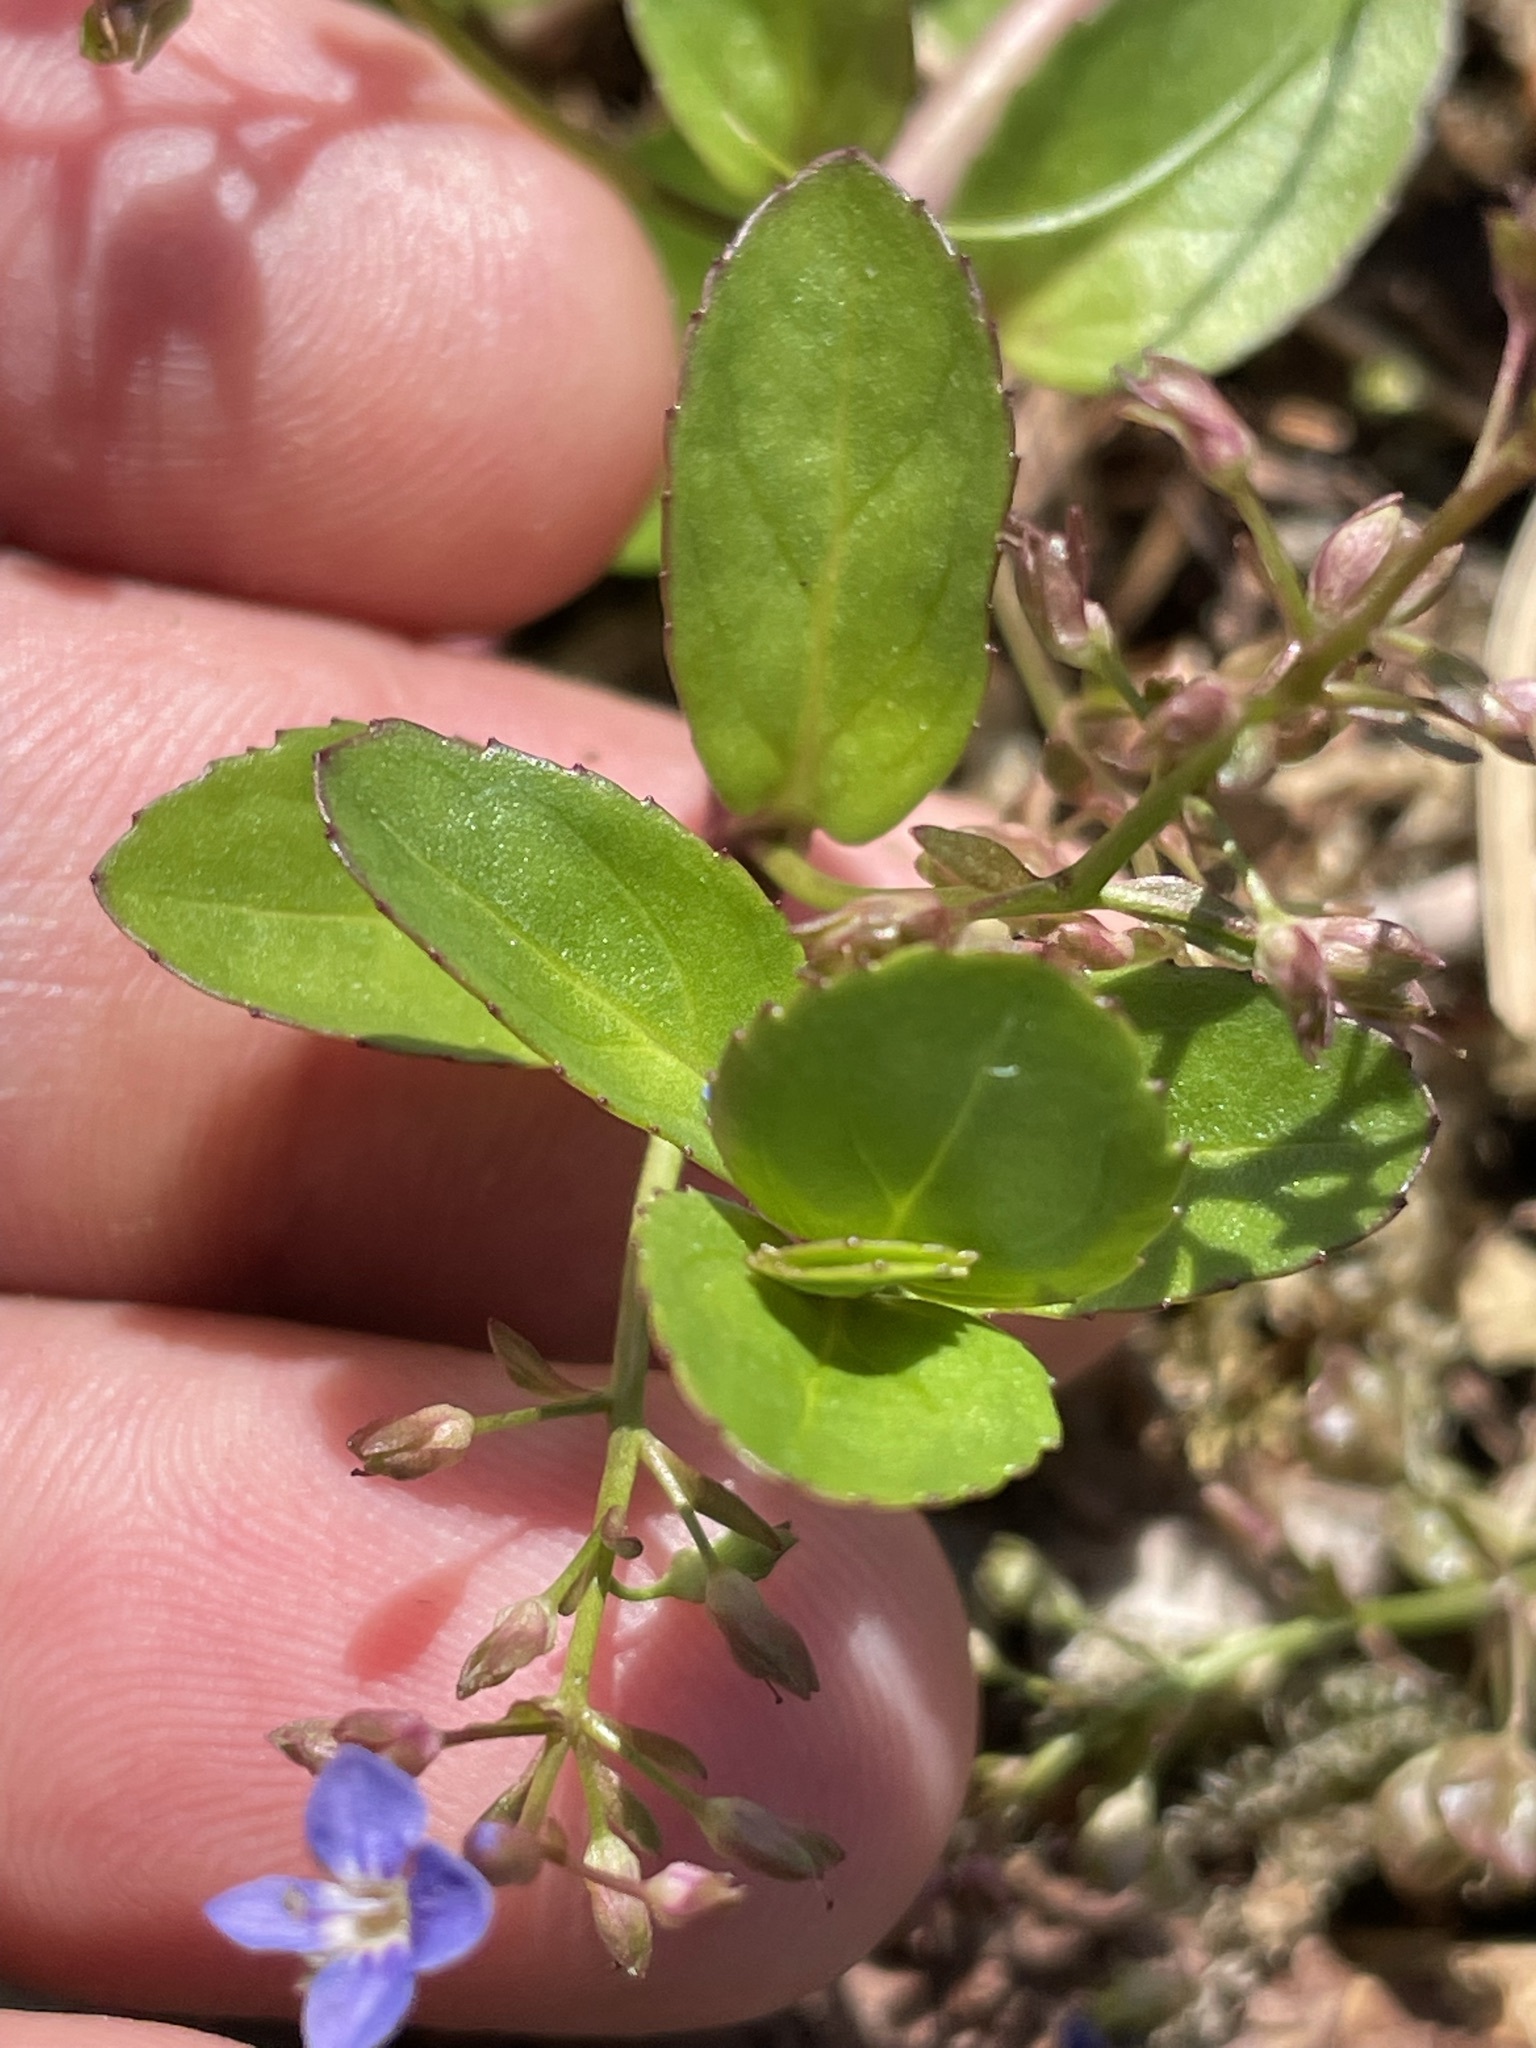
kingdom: Plantae
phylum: Tracheophyta
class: Magnoliopsida
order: Lamiales
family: Plantaginaceae
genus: Veronica
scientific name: Veronica beccabunga
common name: Brooklime
